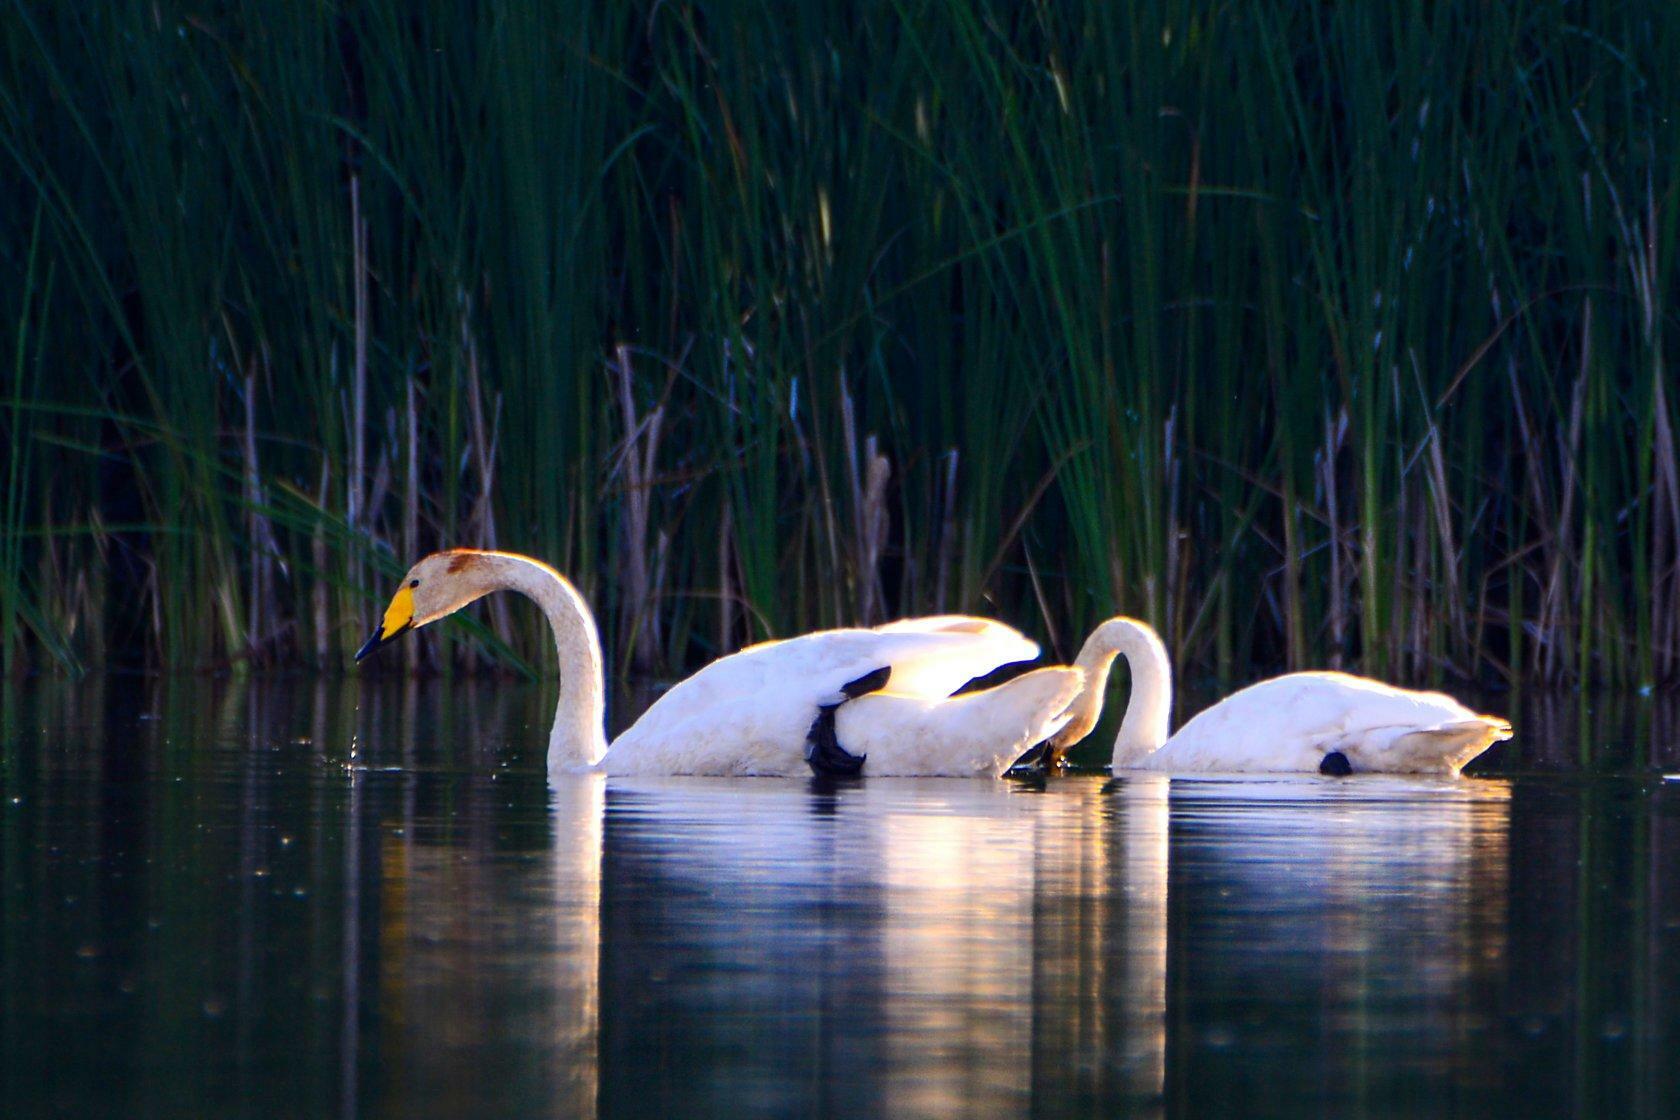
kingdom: Animalia
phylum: Chordata
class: Aves
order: Anseriformes
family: Anatidae
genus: Cygnus
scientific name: Cygnus cygnus
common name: Whooper swan
